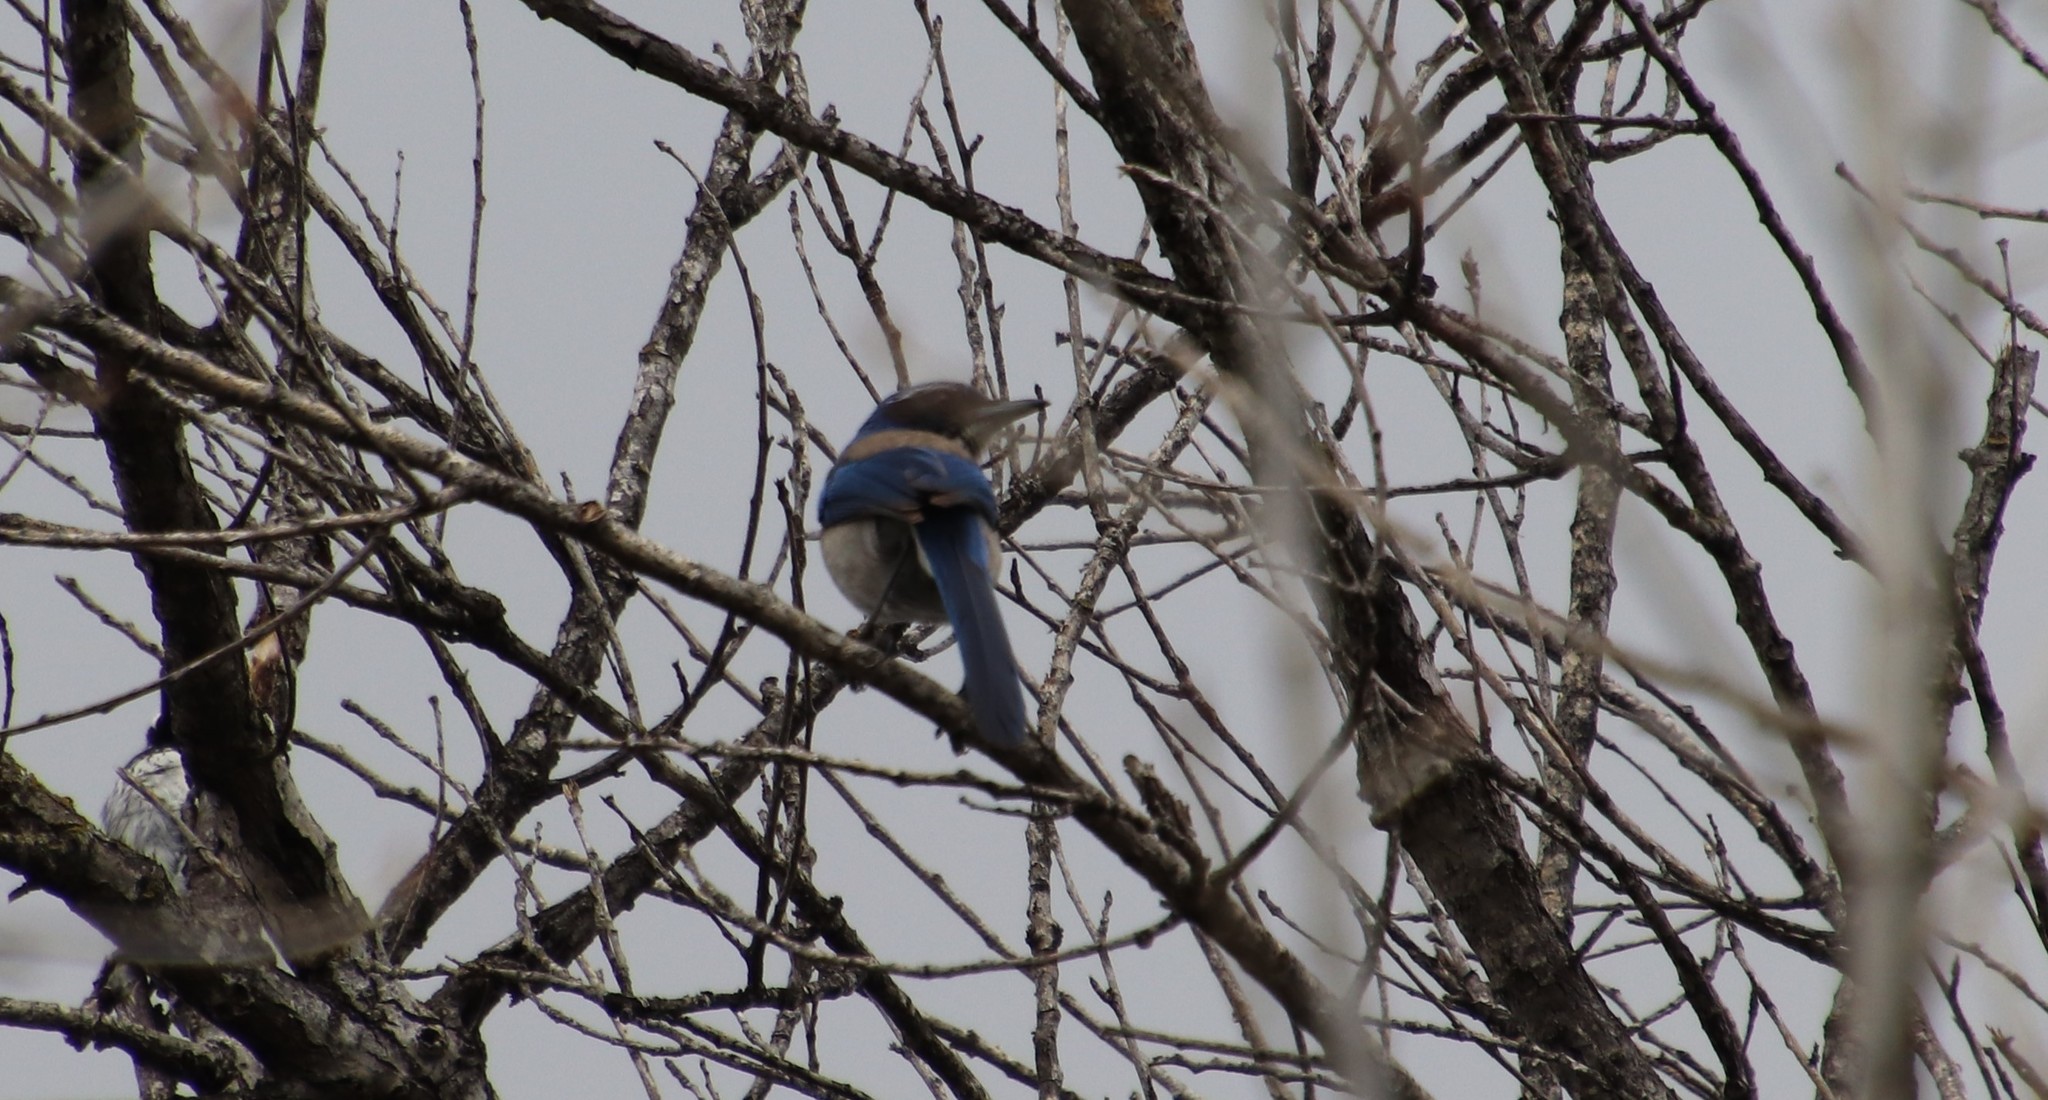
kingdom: Animalia
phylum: Chordata
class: Aves
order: Passeriformes
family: Corvidae
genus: Aphelocoma
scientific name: Aphelocoma californica
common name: California scrub-jay
